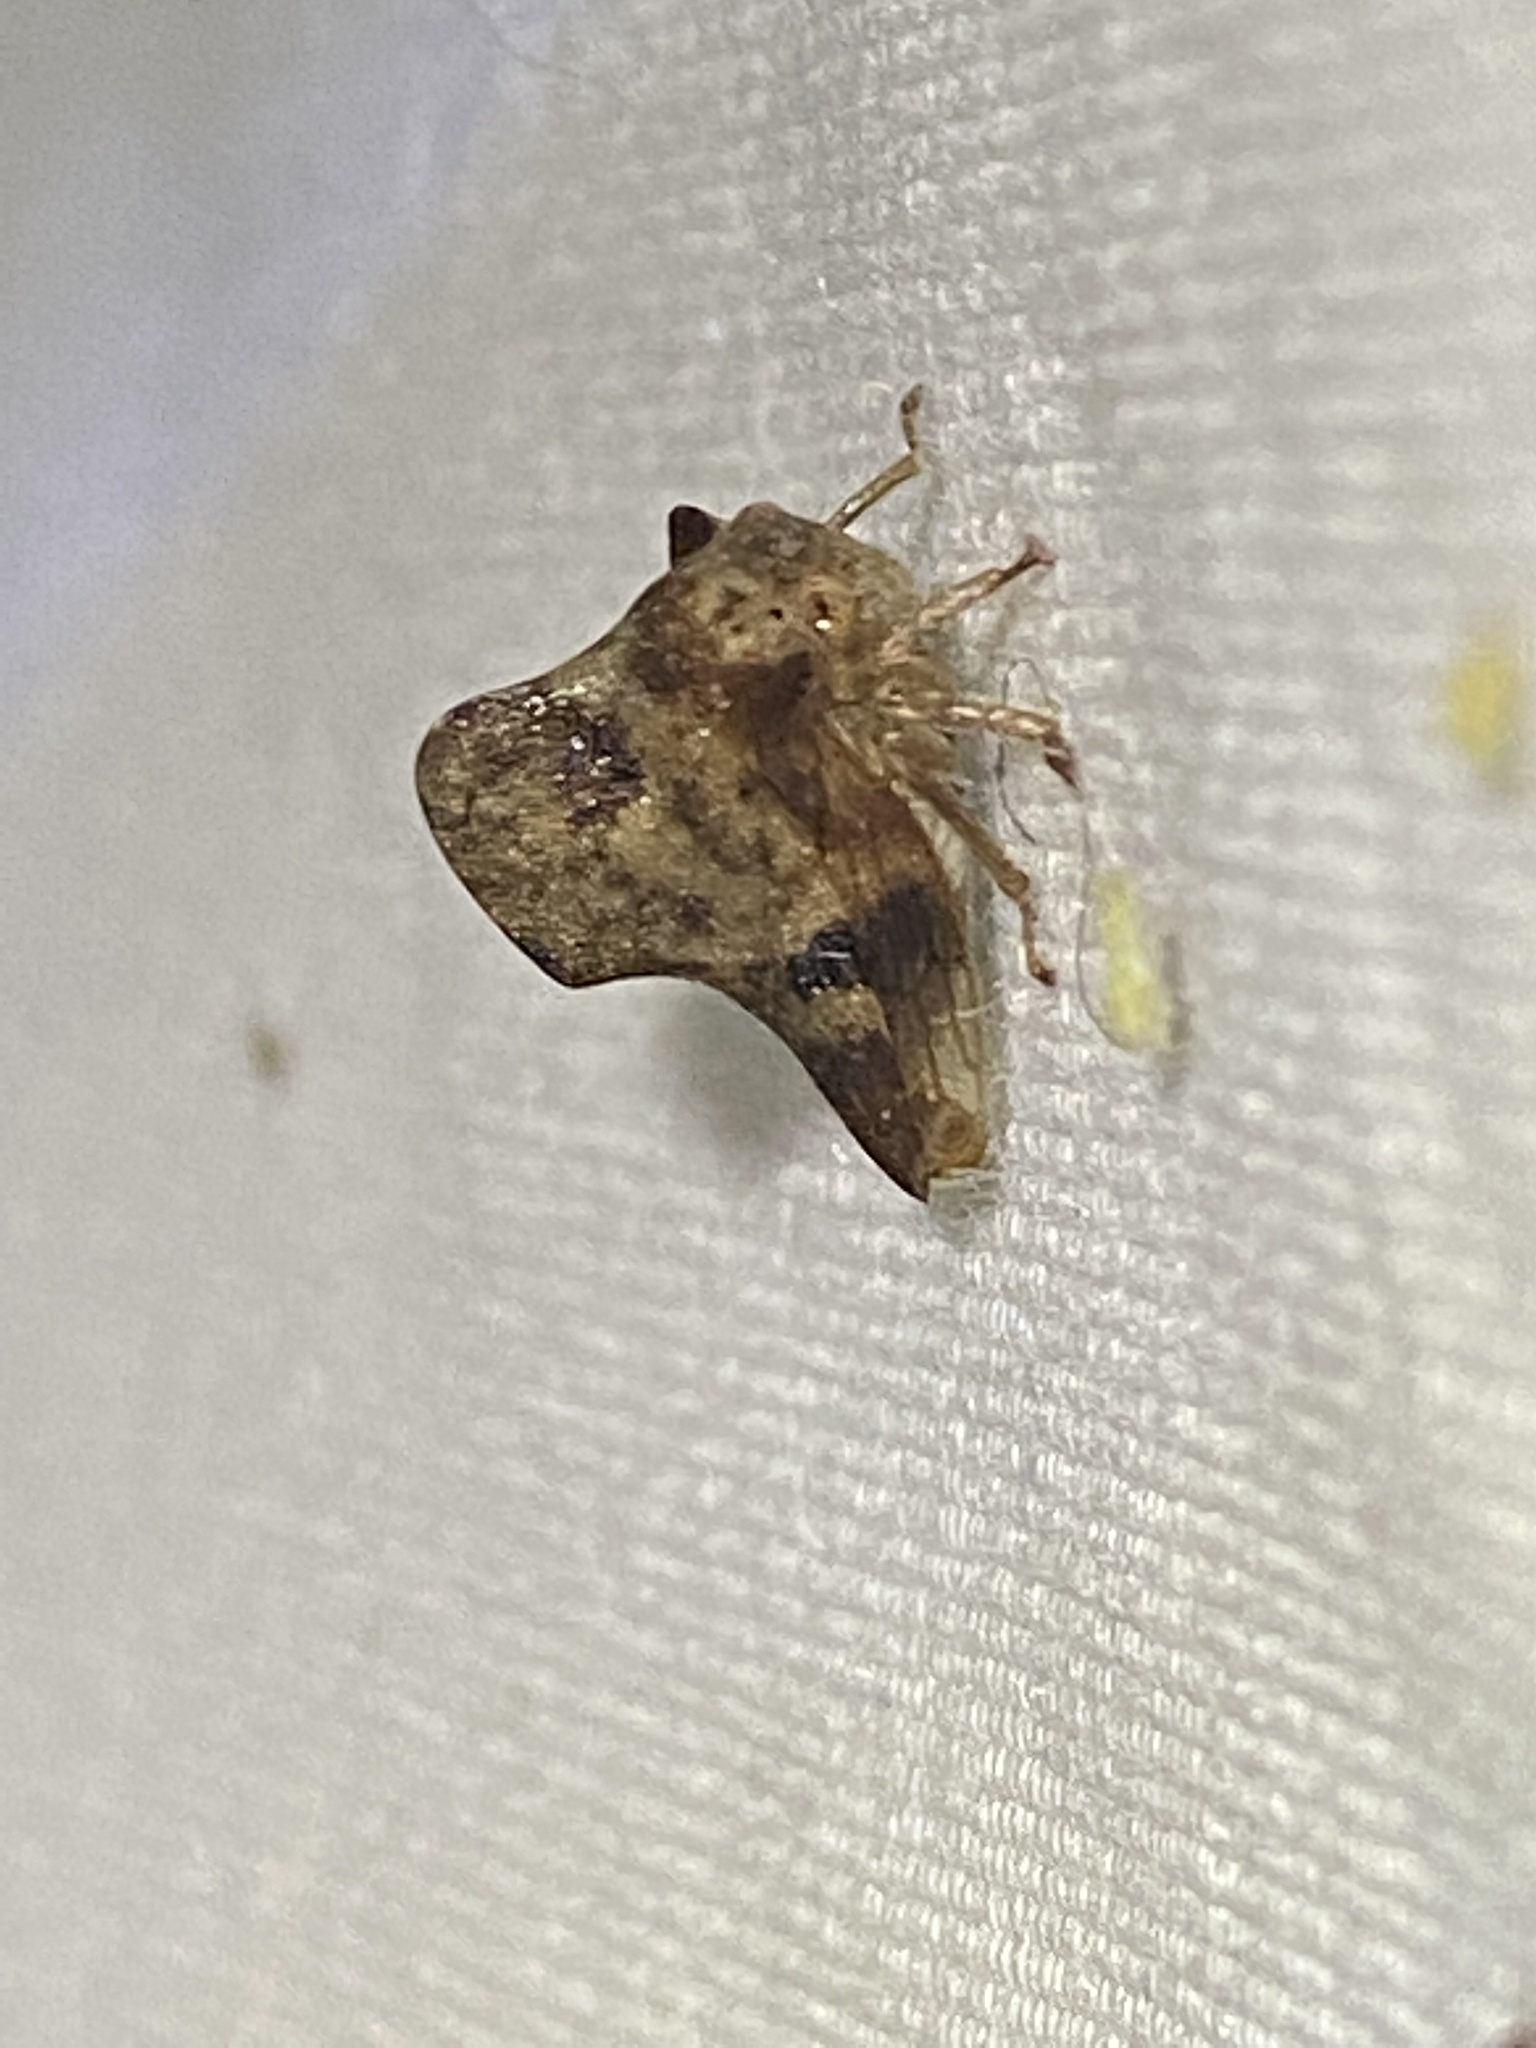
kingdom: Animalia
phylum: Arthropoda
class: Insecta
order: Hemiptera
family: Membracidae
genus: Telamona
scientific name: Telamona maculata
